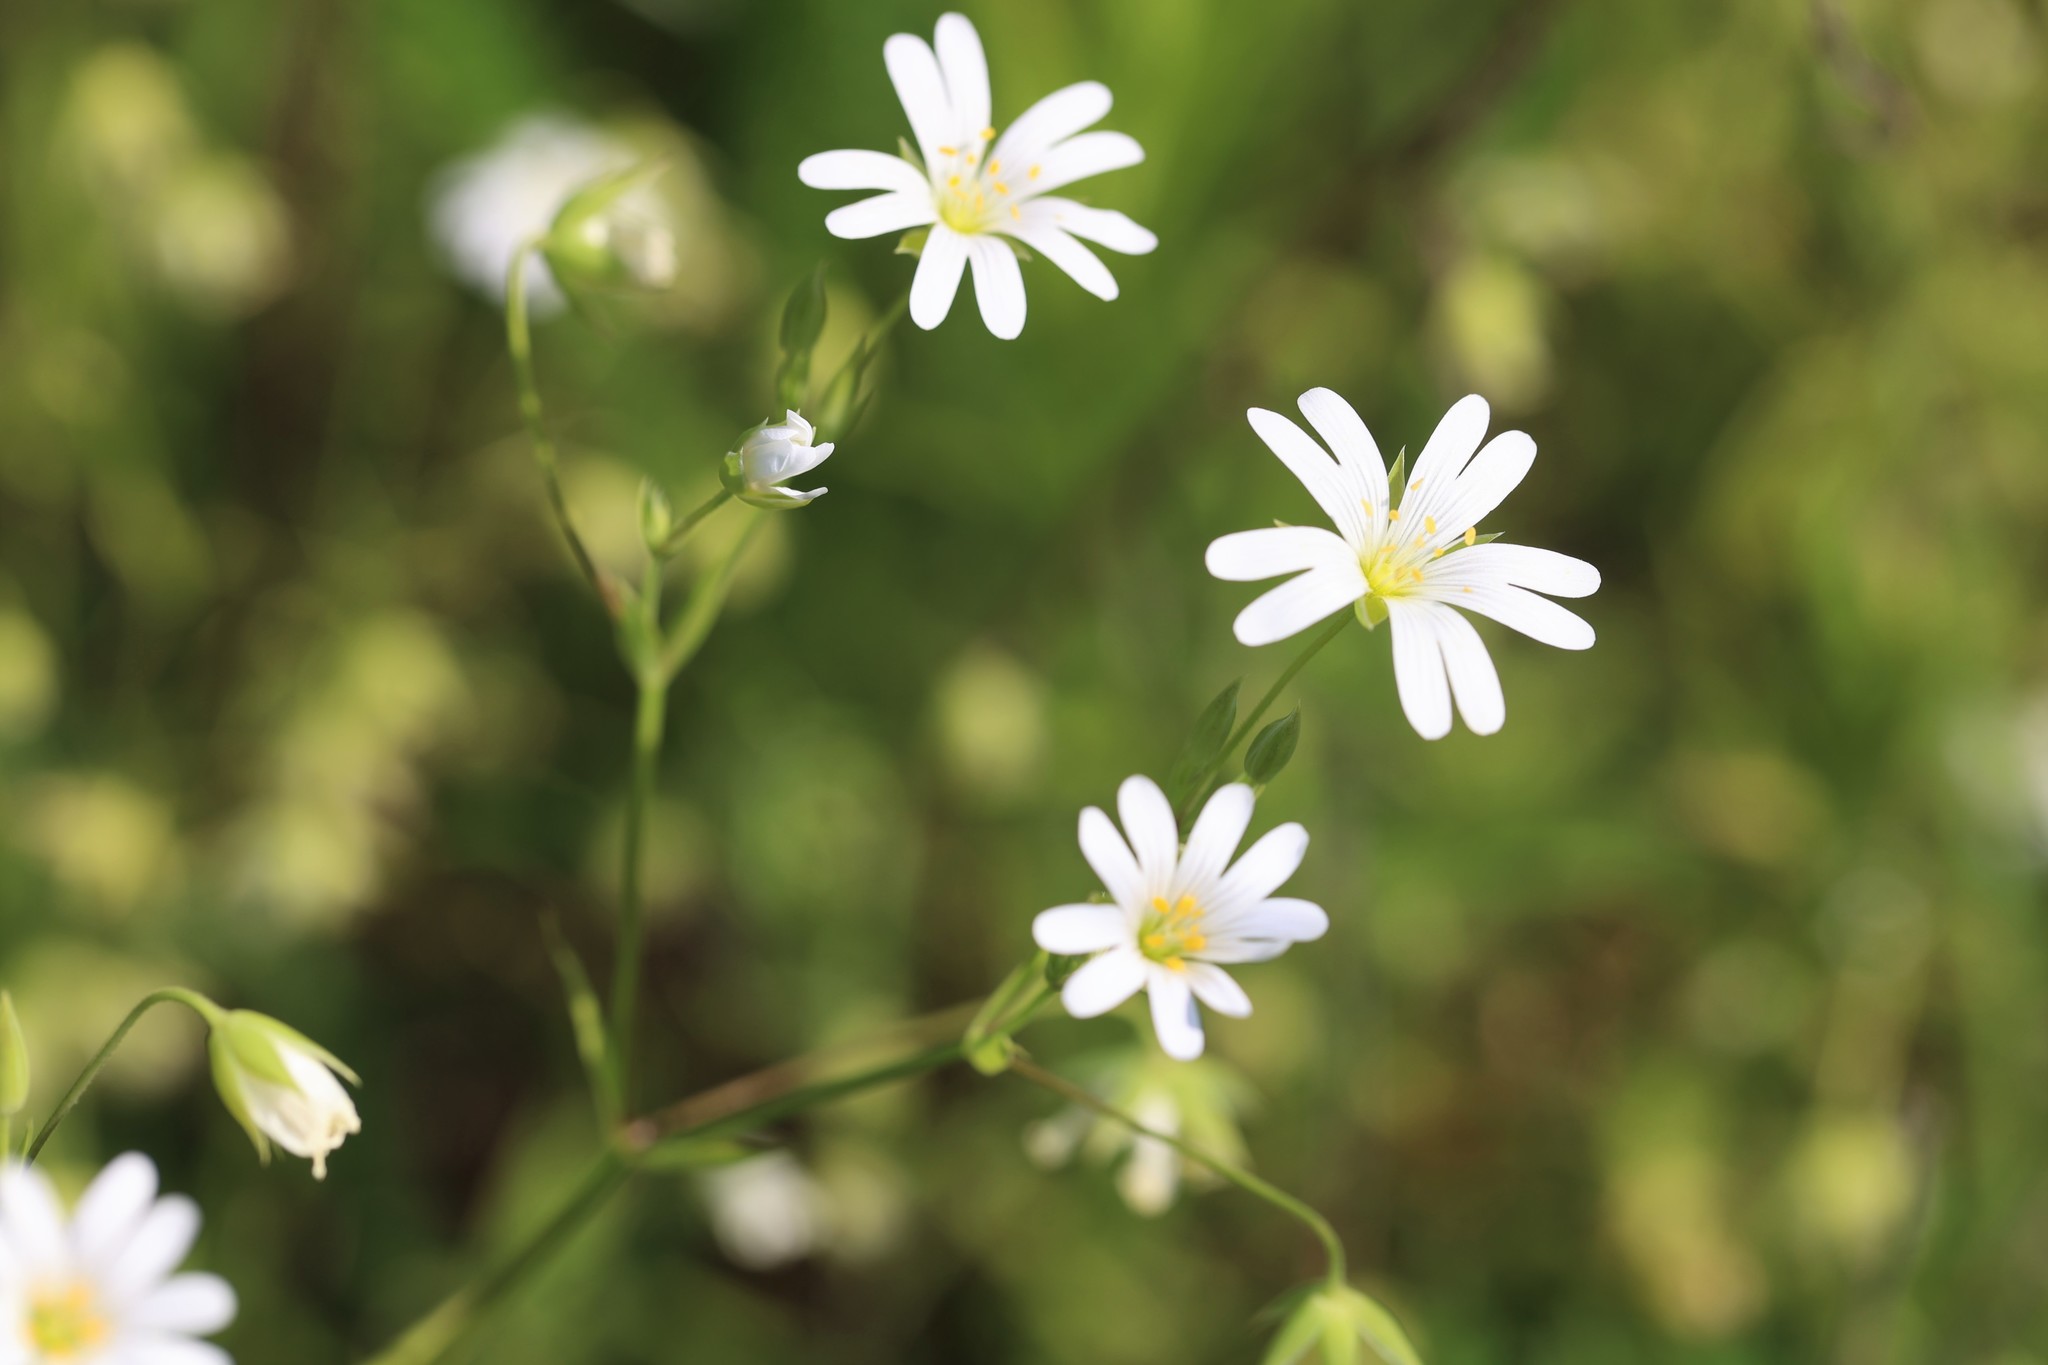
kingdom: Plantae
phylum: Tracheophyta
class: Magnoliopsida
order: Caryophyllales
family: Caryophyllaceae
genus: Rabelera
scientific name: Rabelera holostea
